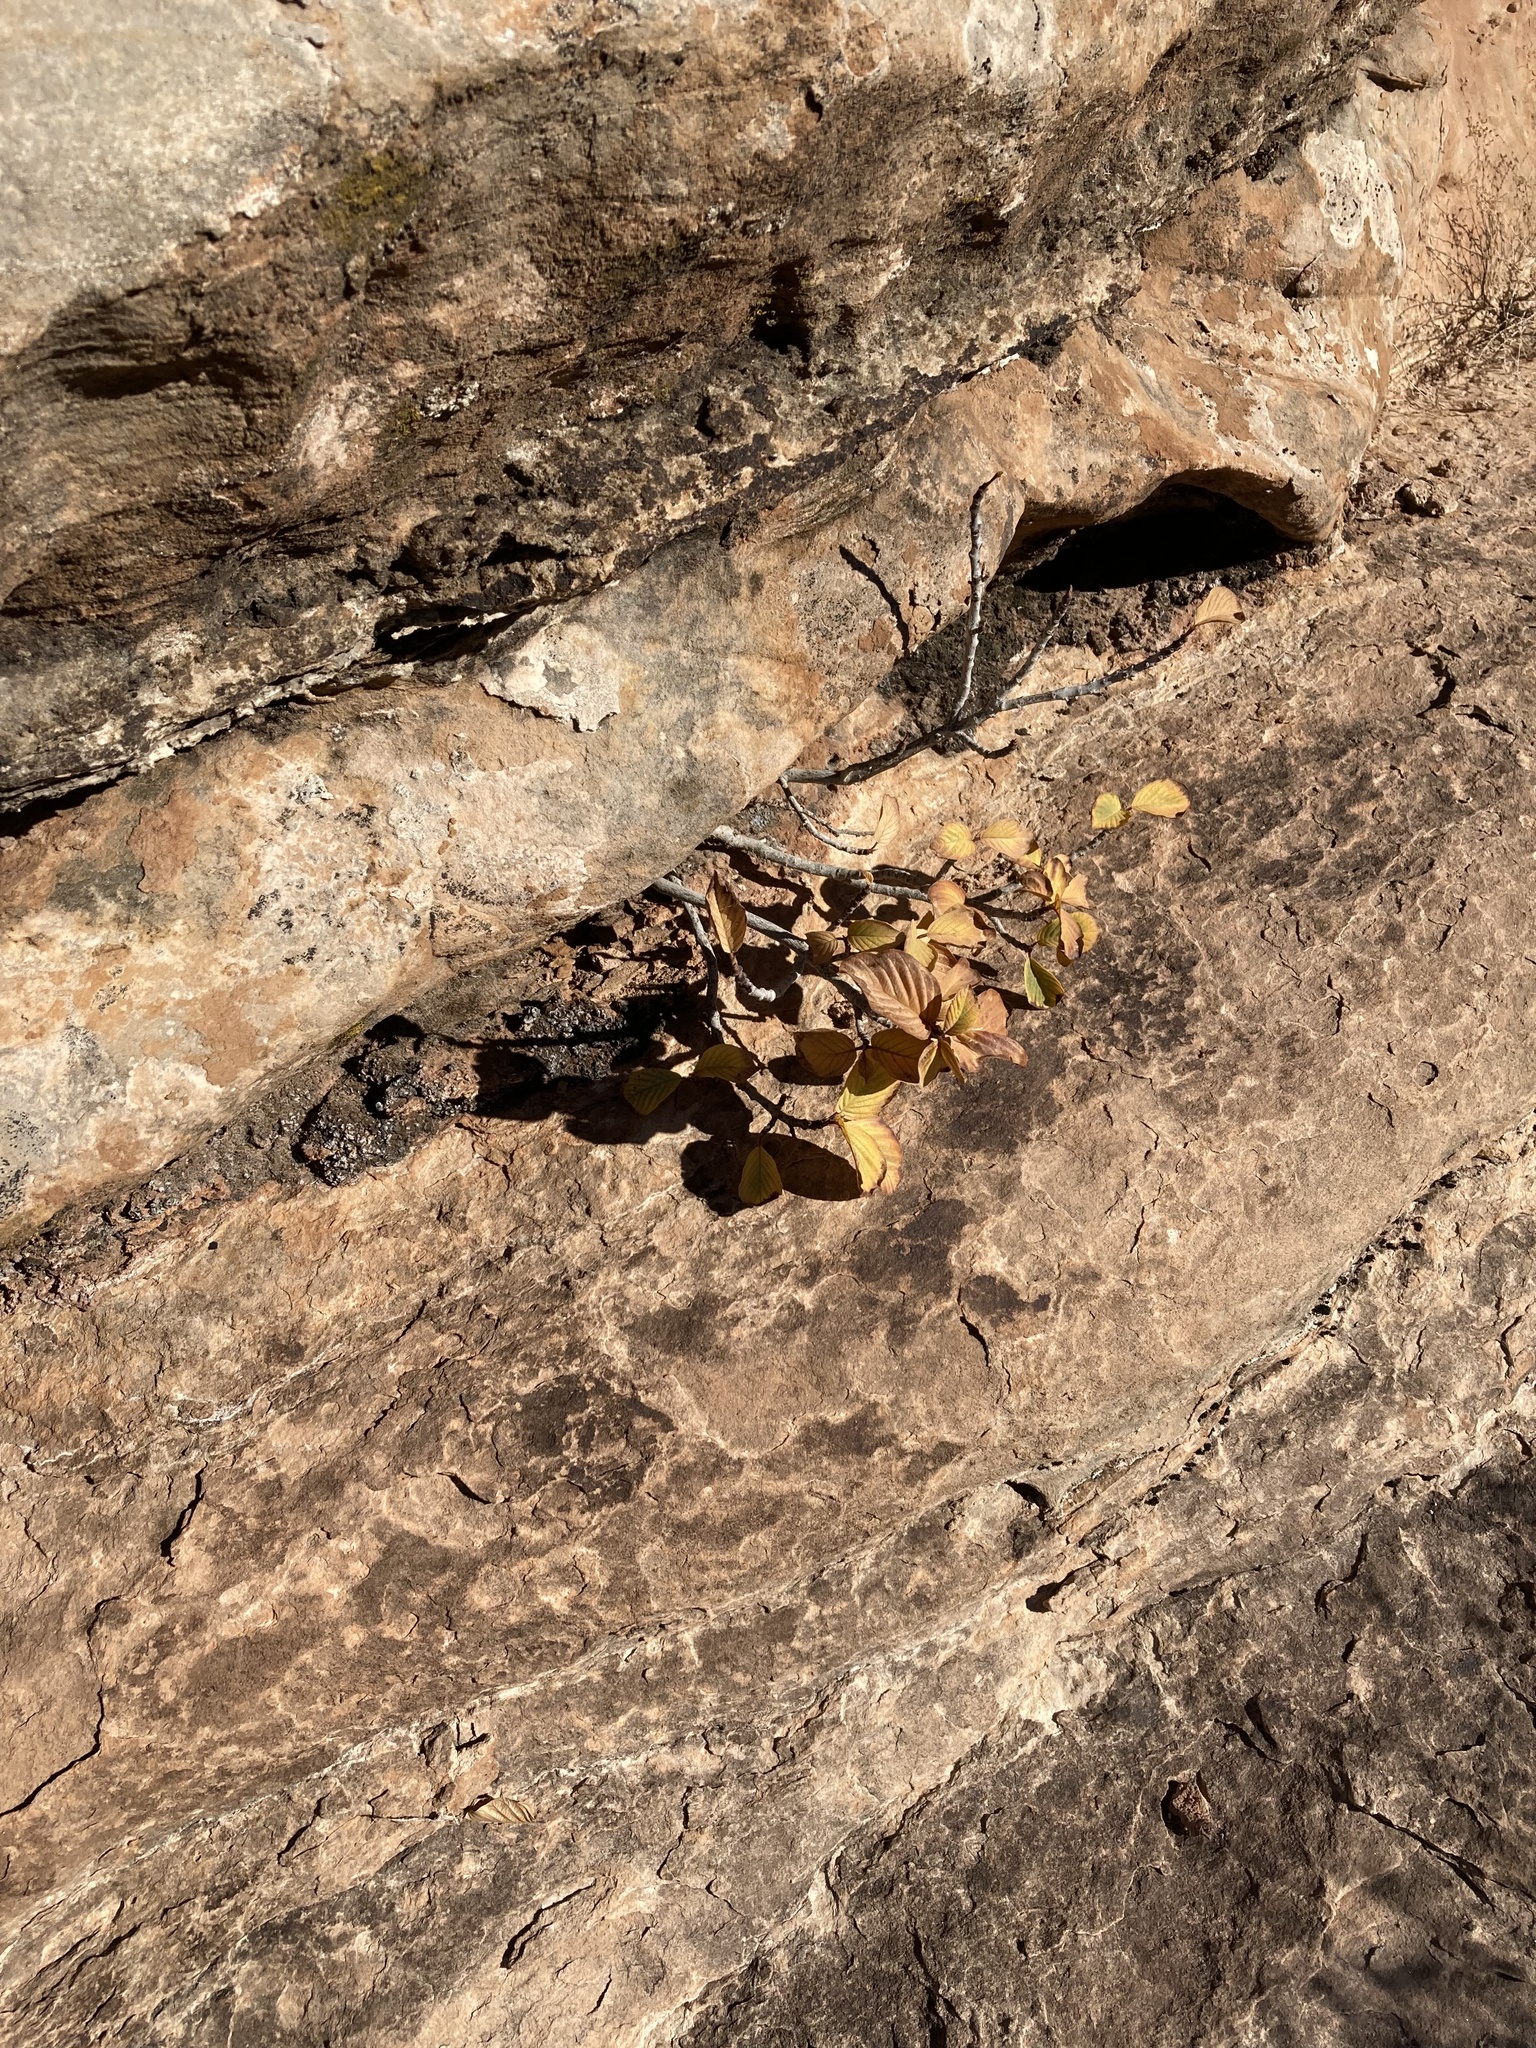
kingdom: Plantae
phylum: Tracheophyta
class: Magnoliopsida
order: Rosales
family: Rhamnaceae
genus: Frangula
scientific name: Frangula betulifolia
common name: Birch-leaf buckthorn
